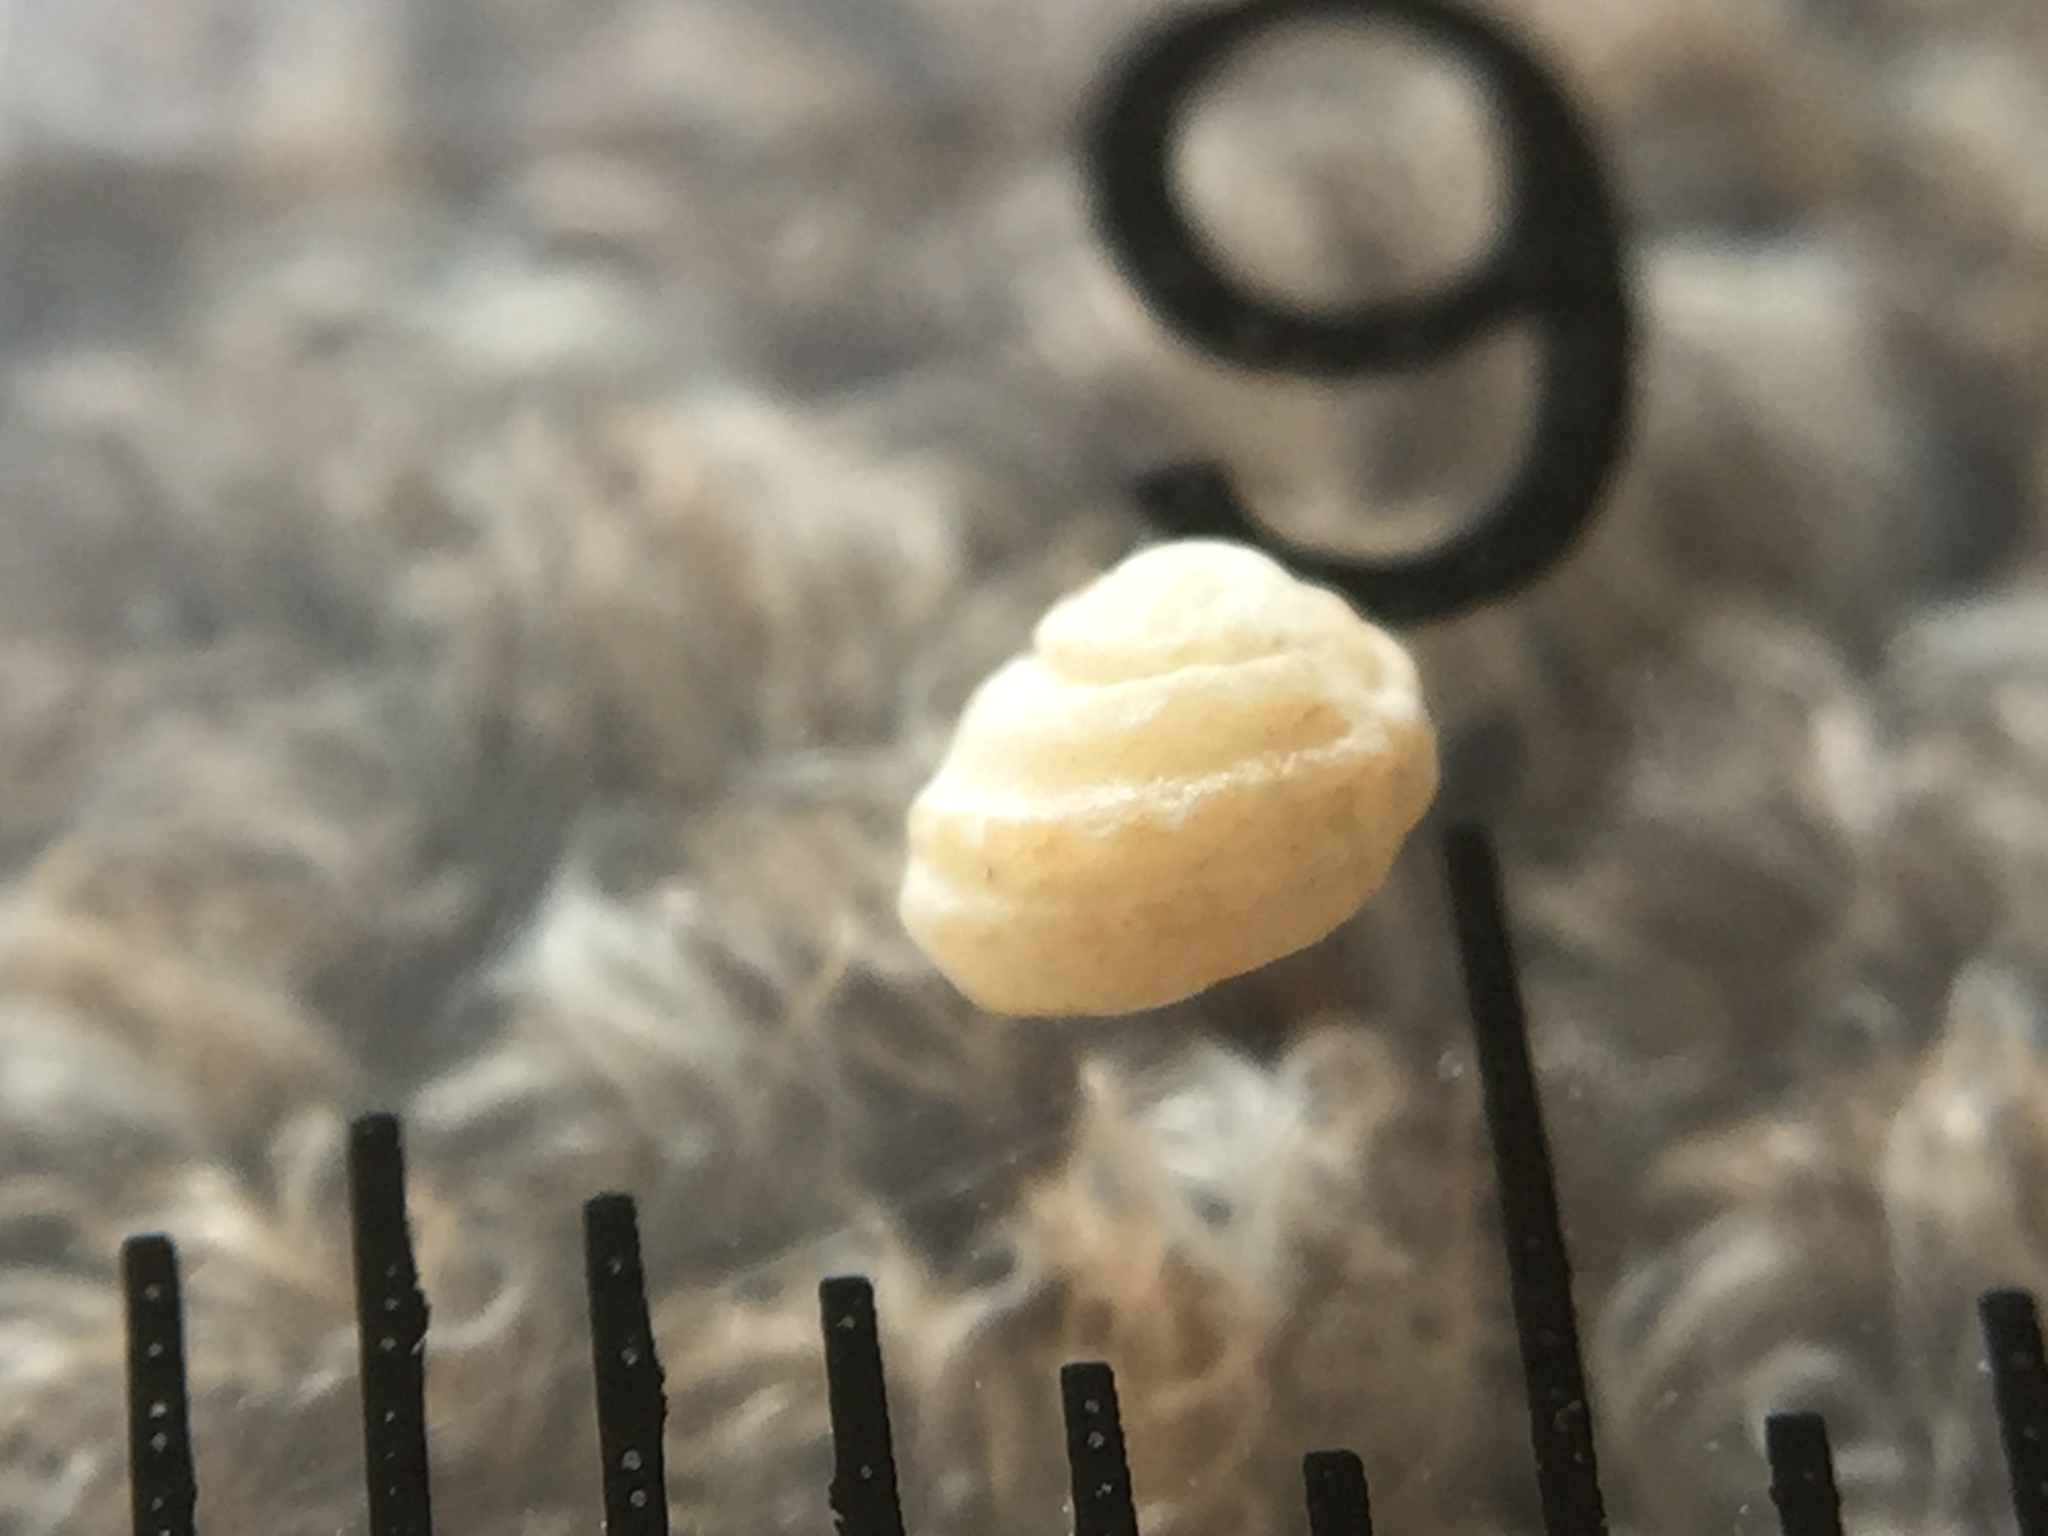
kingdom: Animalia
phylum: Mollusca
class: Gastropoda
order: Trochida
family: Turbinidae
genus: Modelia
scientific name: Modelia granosa
